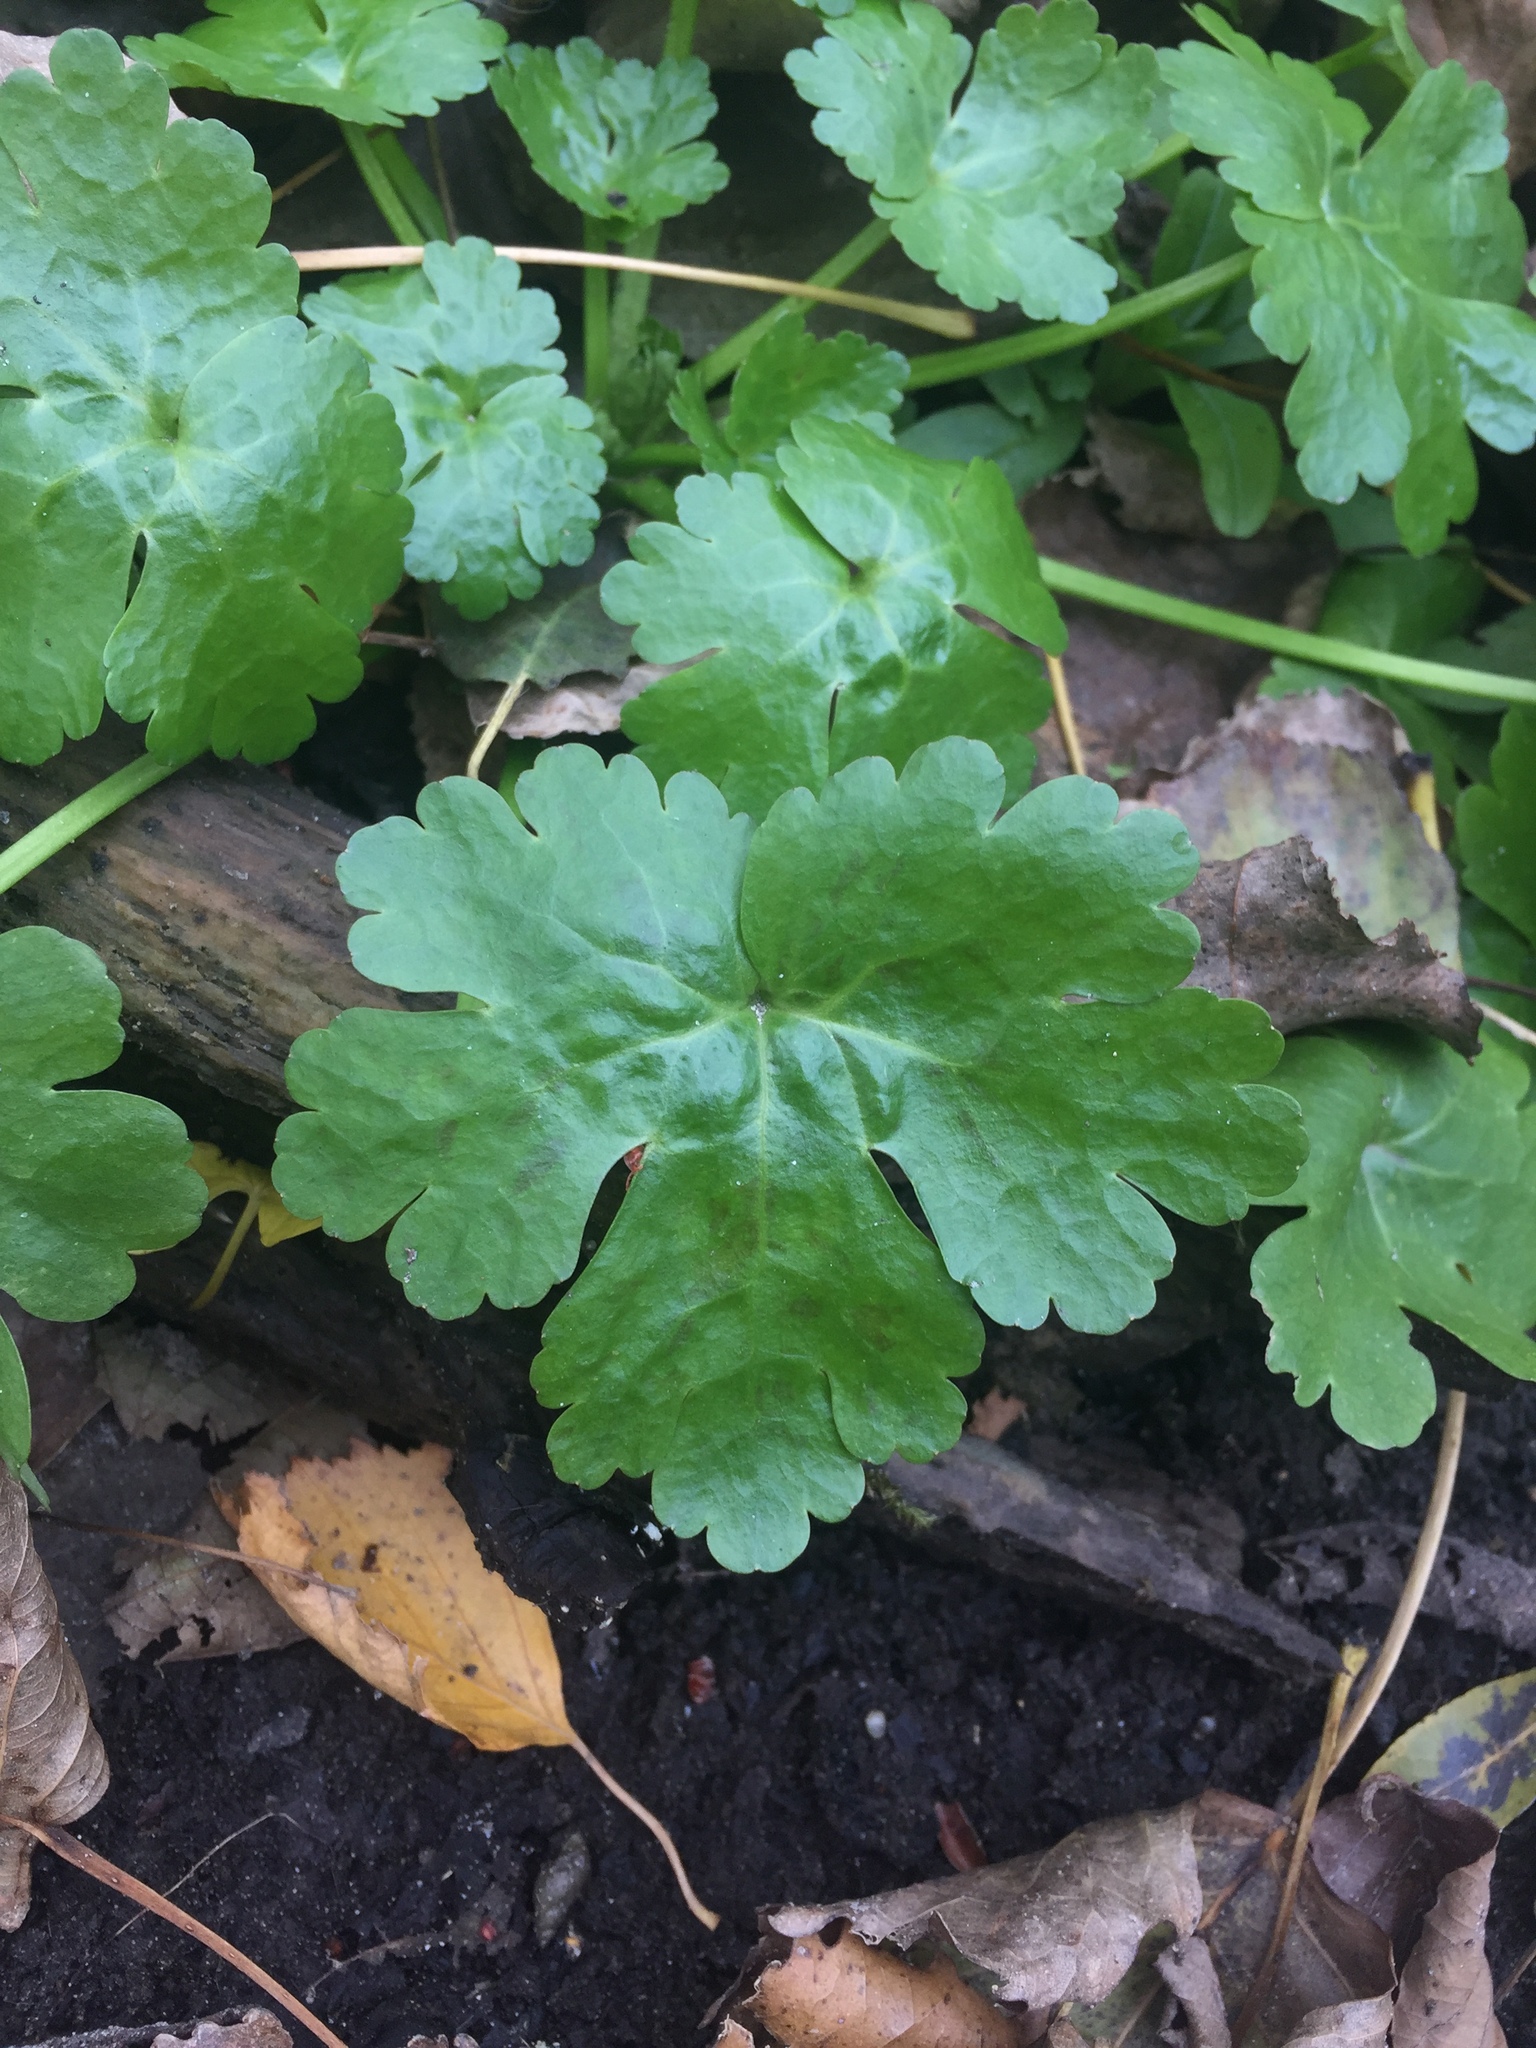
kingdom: Plantae
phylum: Tracheophyta
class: Magnoliopsida
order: Ranunculales
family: Ranunculaceae
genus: Ranunculus
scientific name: Ranunculus sceleratus
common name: Celery-leaved buttercup
